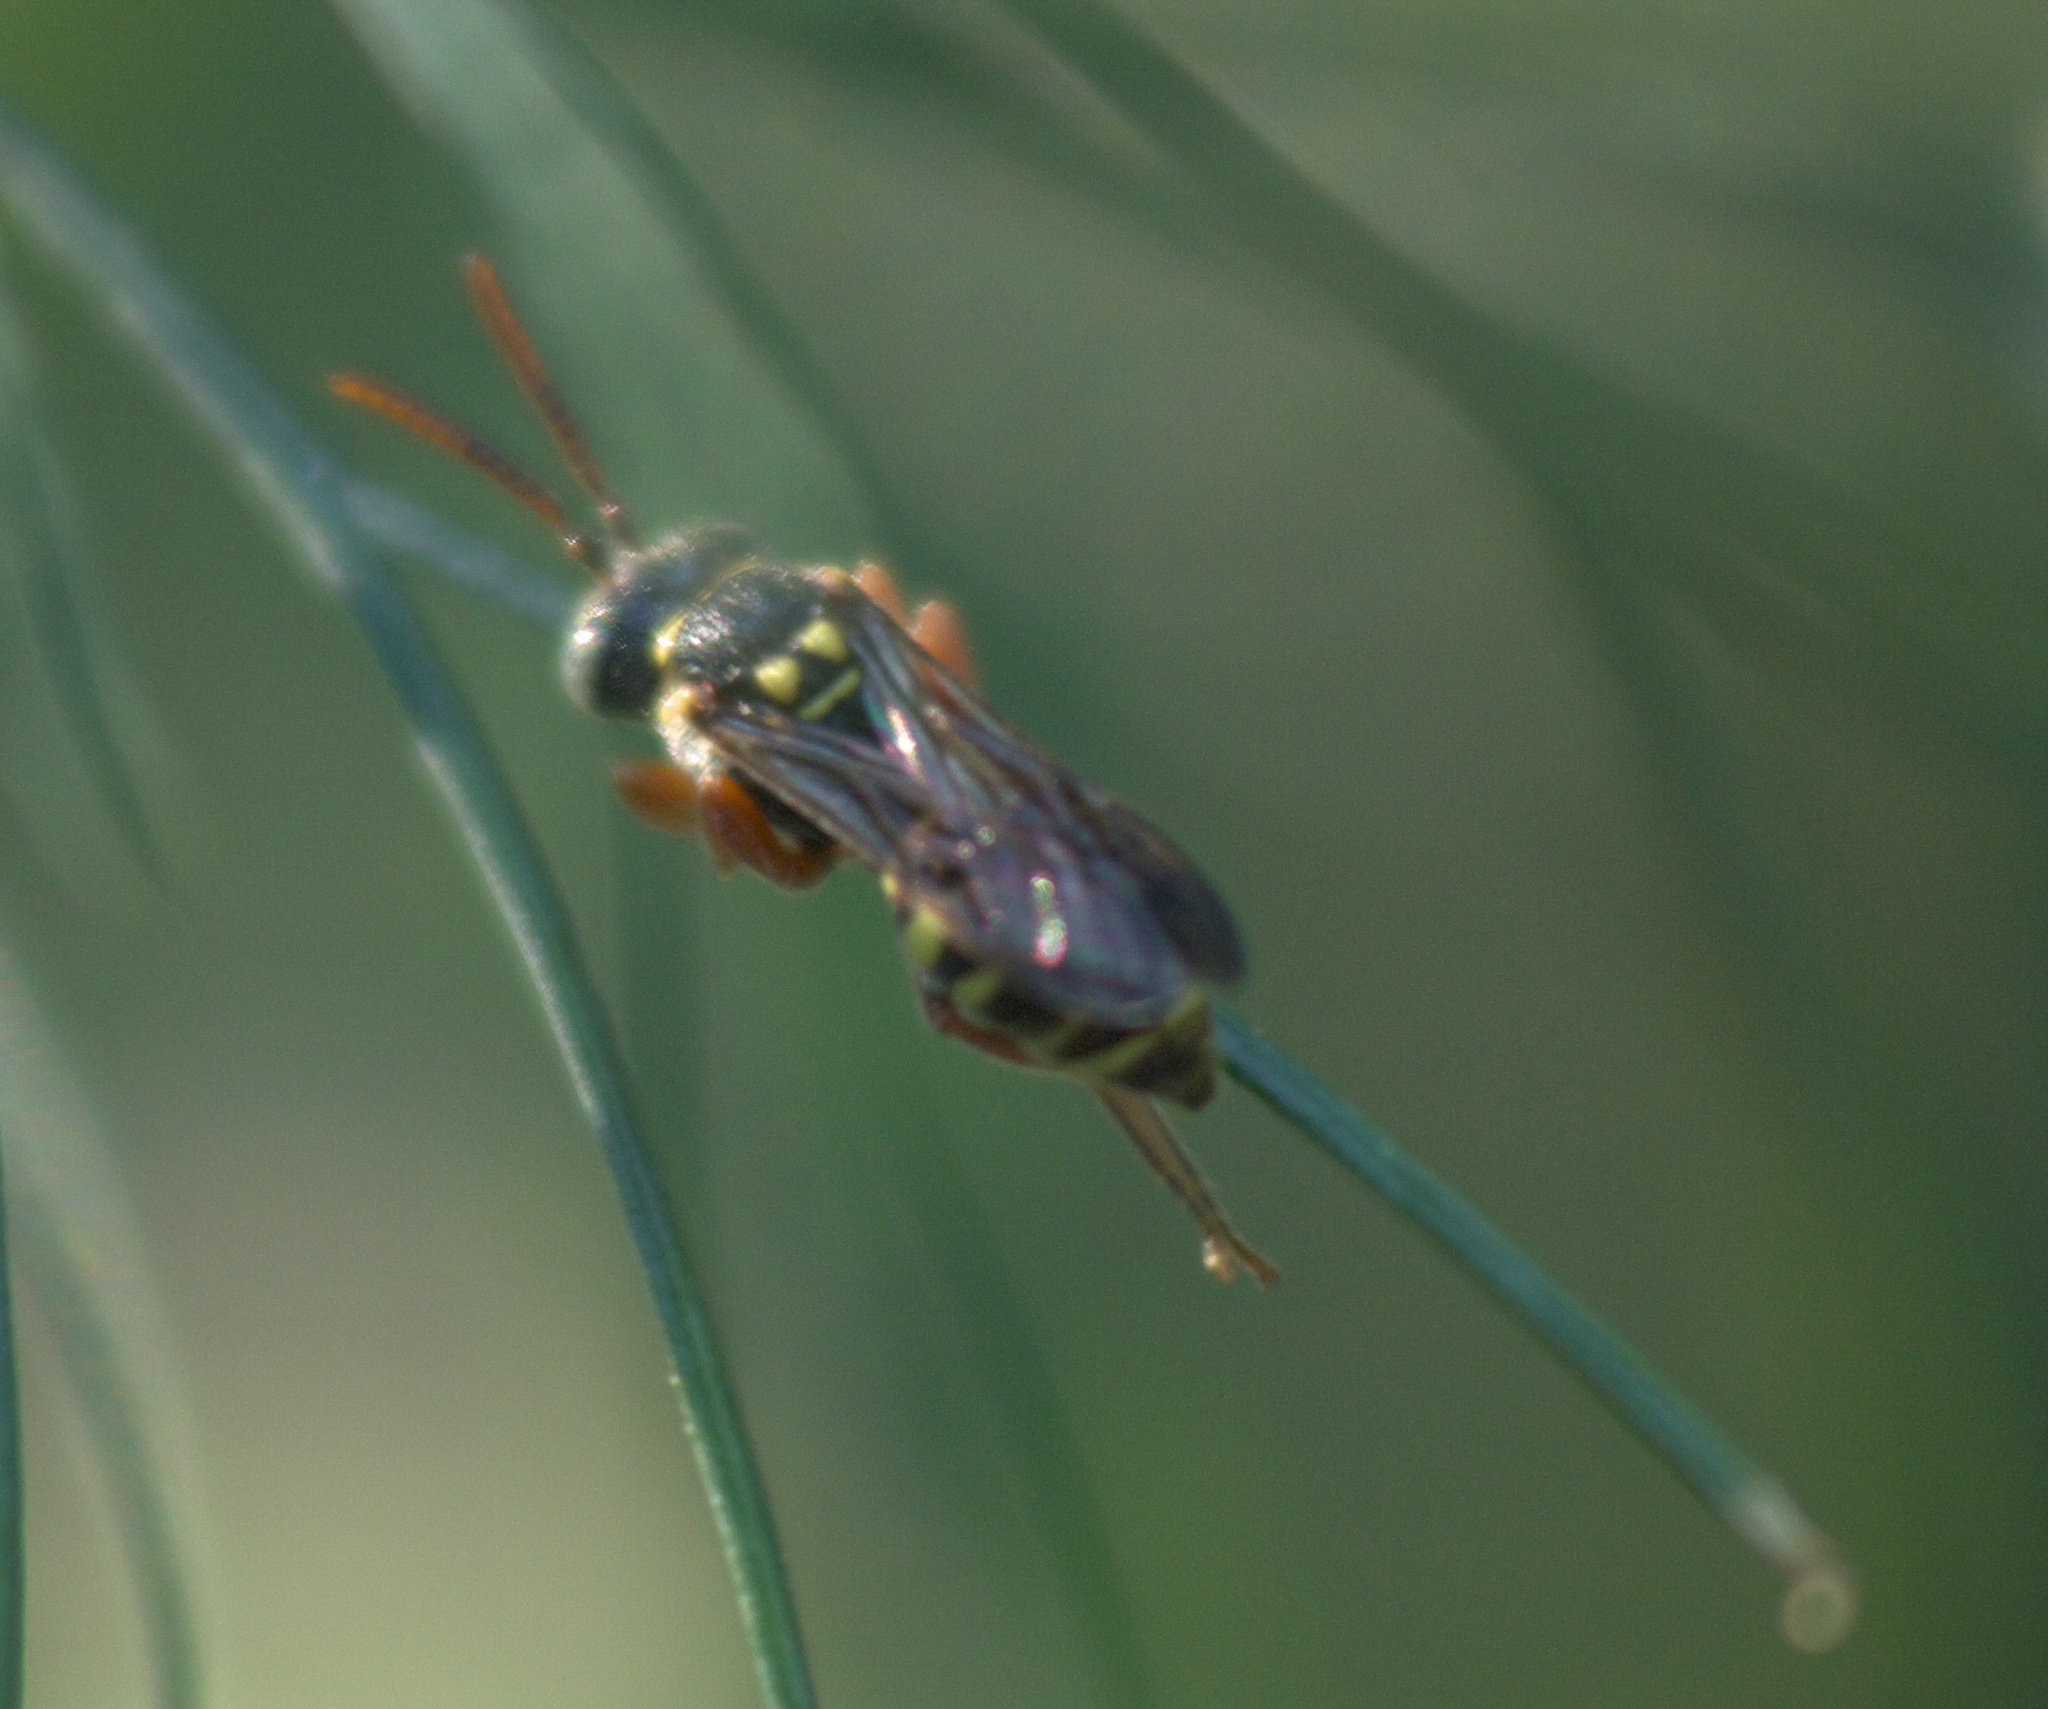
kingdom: Animalia
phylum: Arthropoda
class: Insecta
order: Hymenoptera
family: Apidae
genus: Nomada
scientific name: Nomada texana
